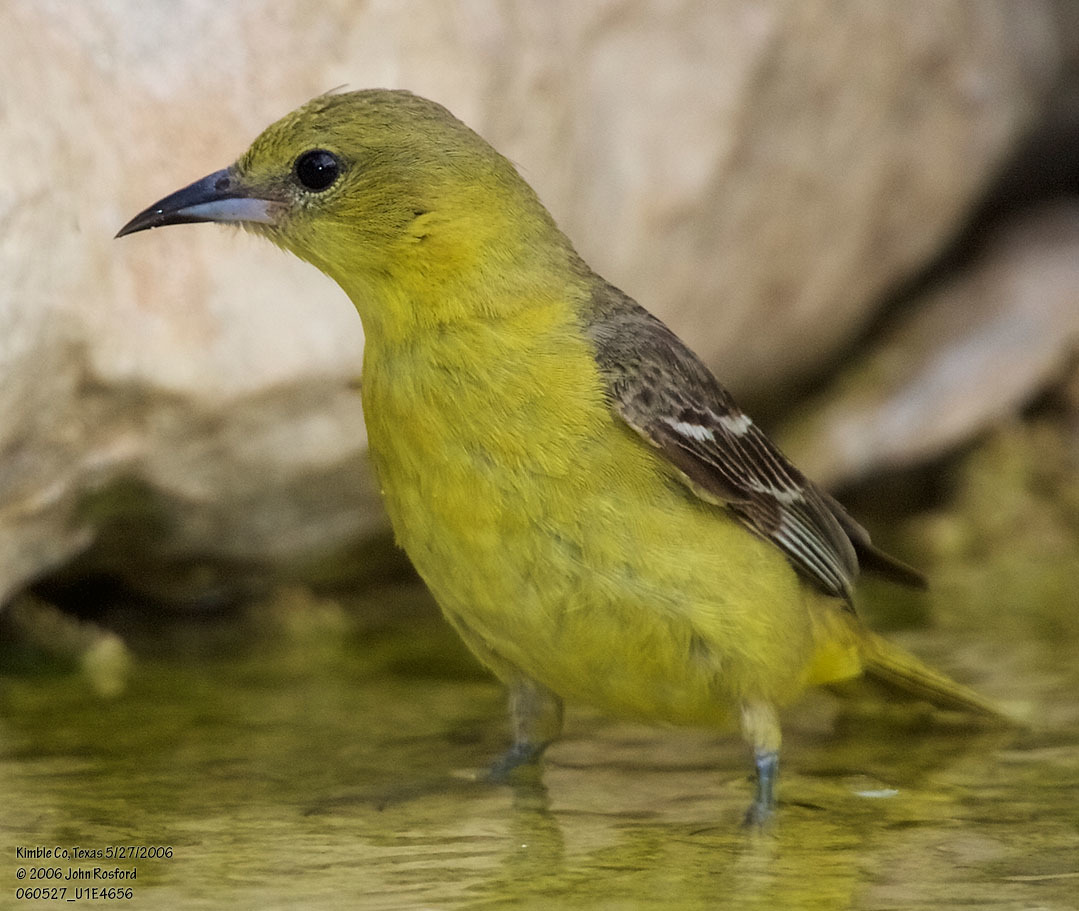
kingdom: Animalia
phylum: Chordata
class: Aves
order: Passeriformes
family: Icteridae
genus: Icterus
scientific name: Icterus spurius
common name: Orchard oriole
